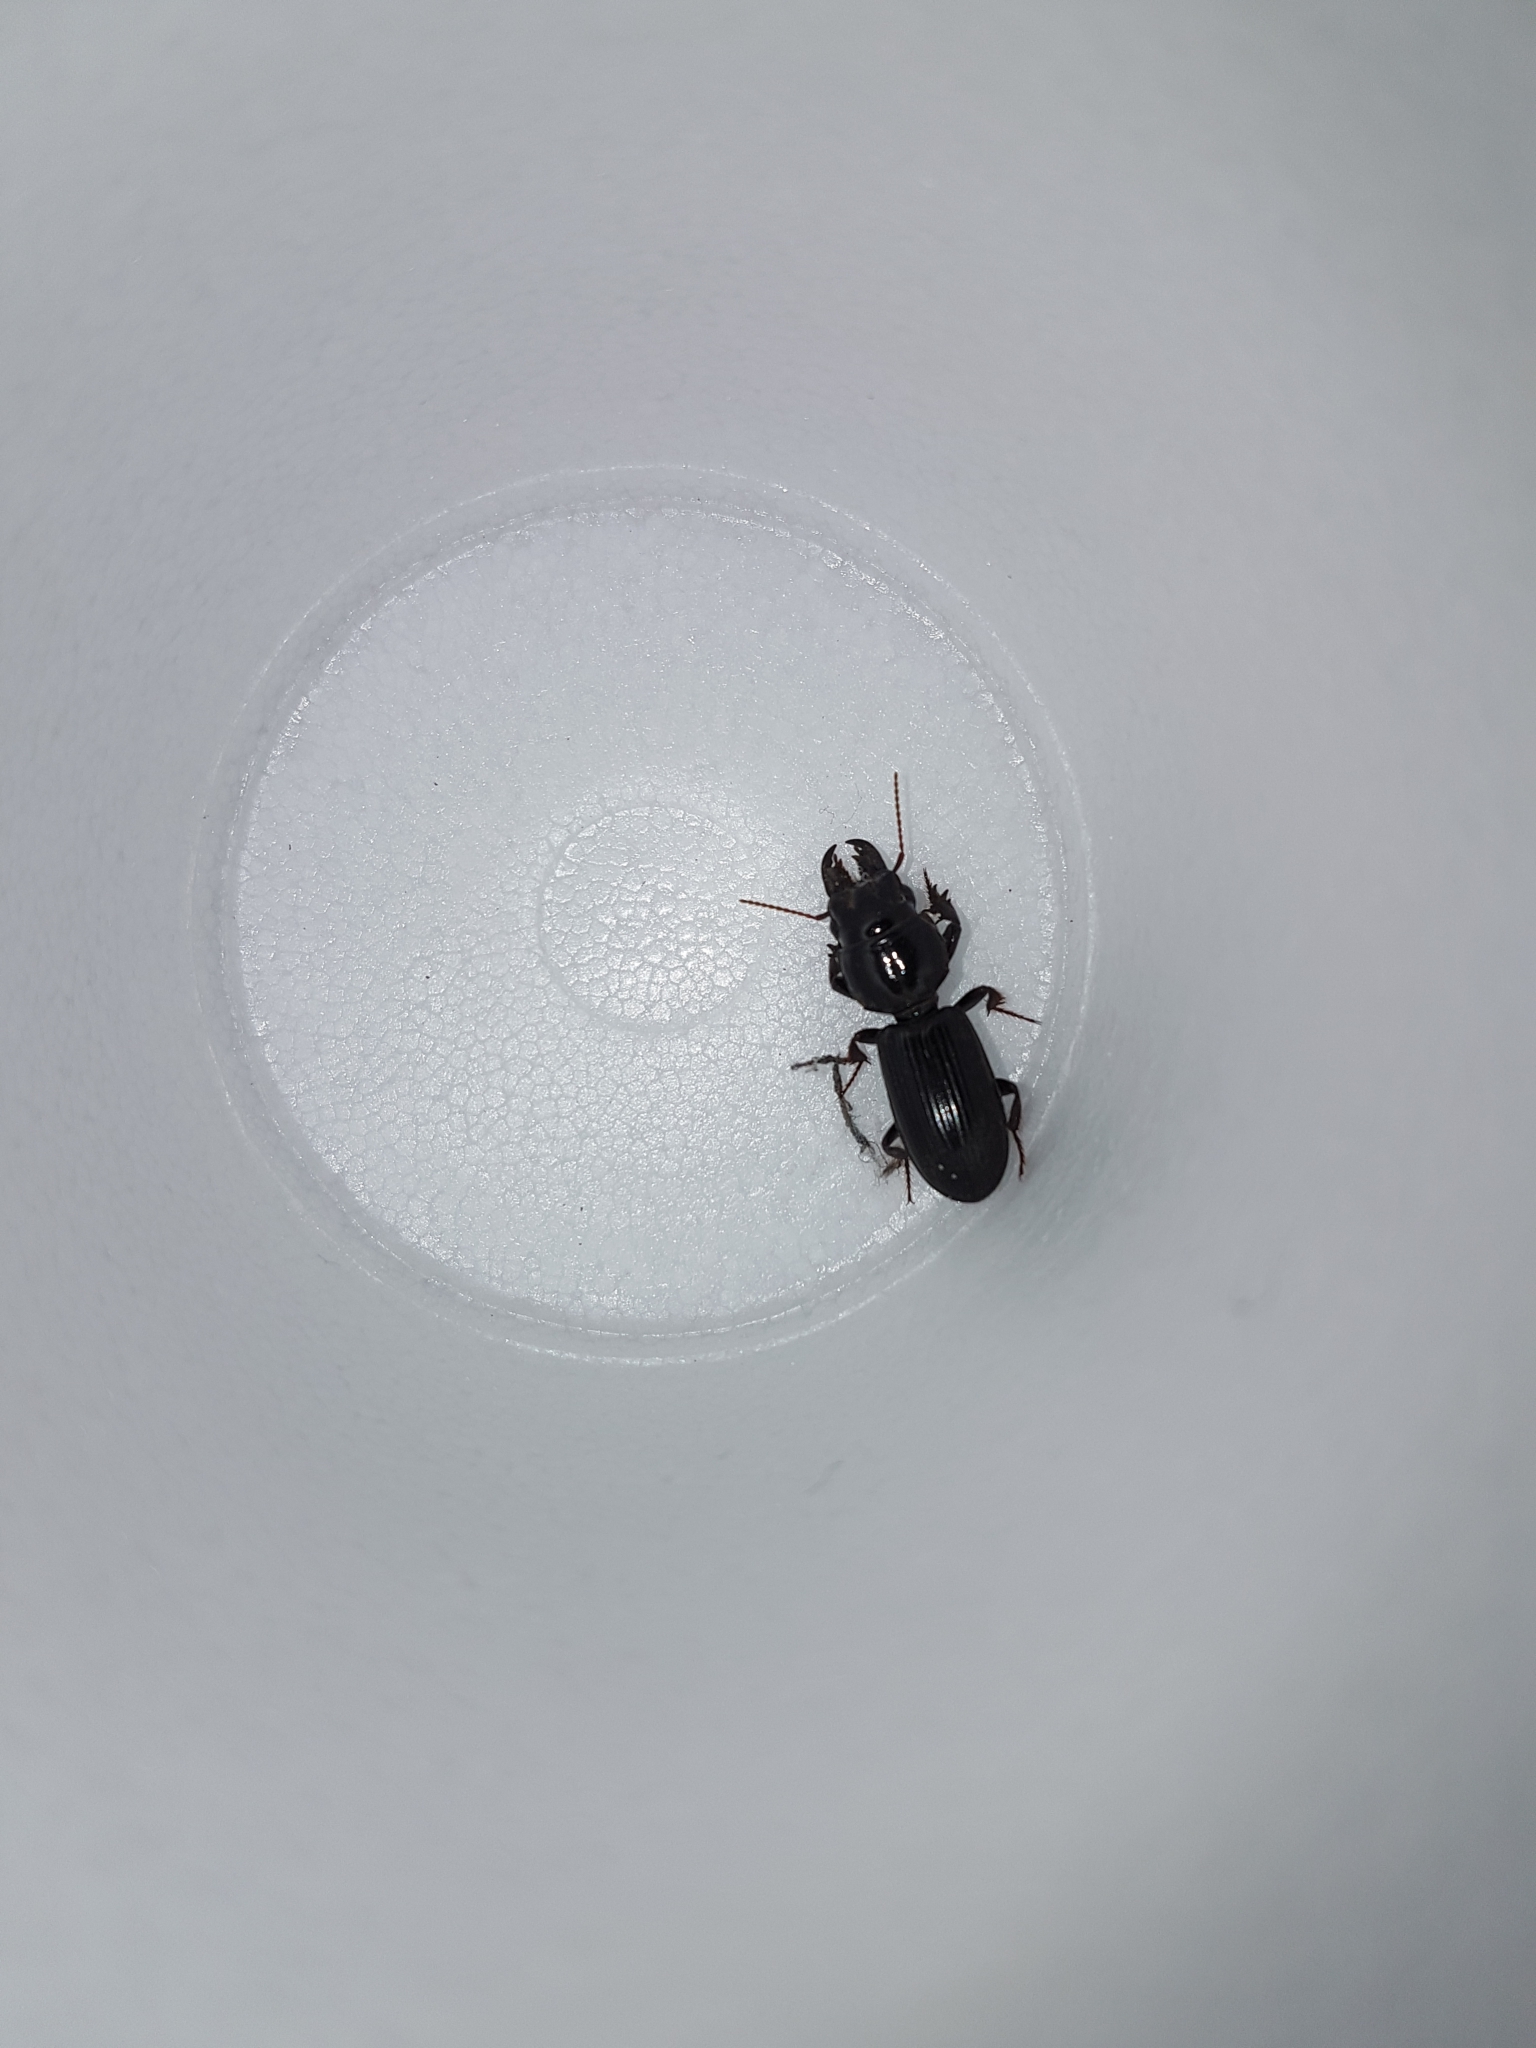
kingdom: Animalia
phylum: Arthropoda
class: Insecta
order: Coleoptera
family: Carabidae
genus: Scarites
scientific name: Scarites subterraneus
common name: Big-headed ground beetle
